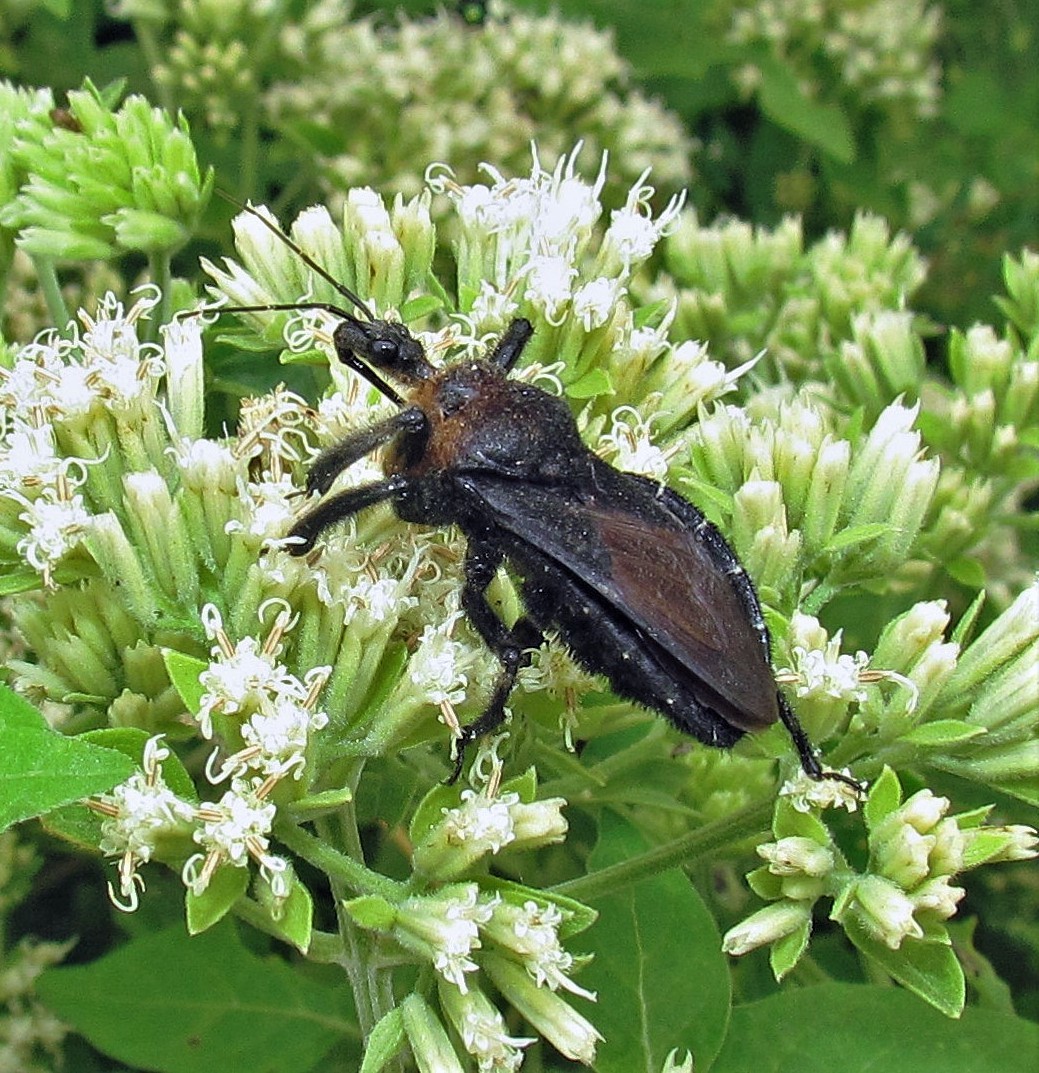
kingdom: Animalia
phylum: Arthropoda
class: Insecta
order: Hemiptera
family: Reduviidae
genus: Apiomerus
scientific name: Apiomerus lanipes
